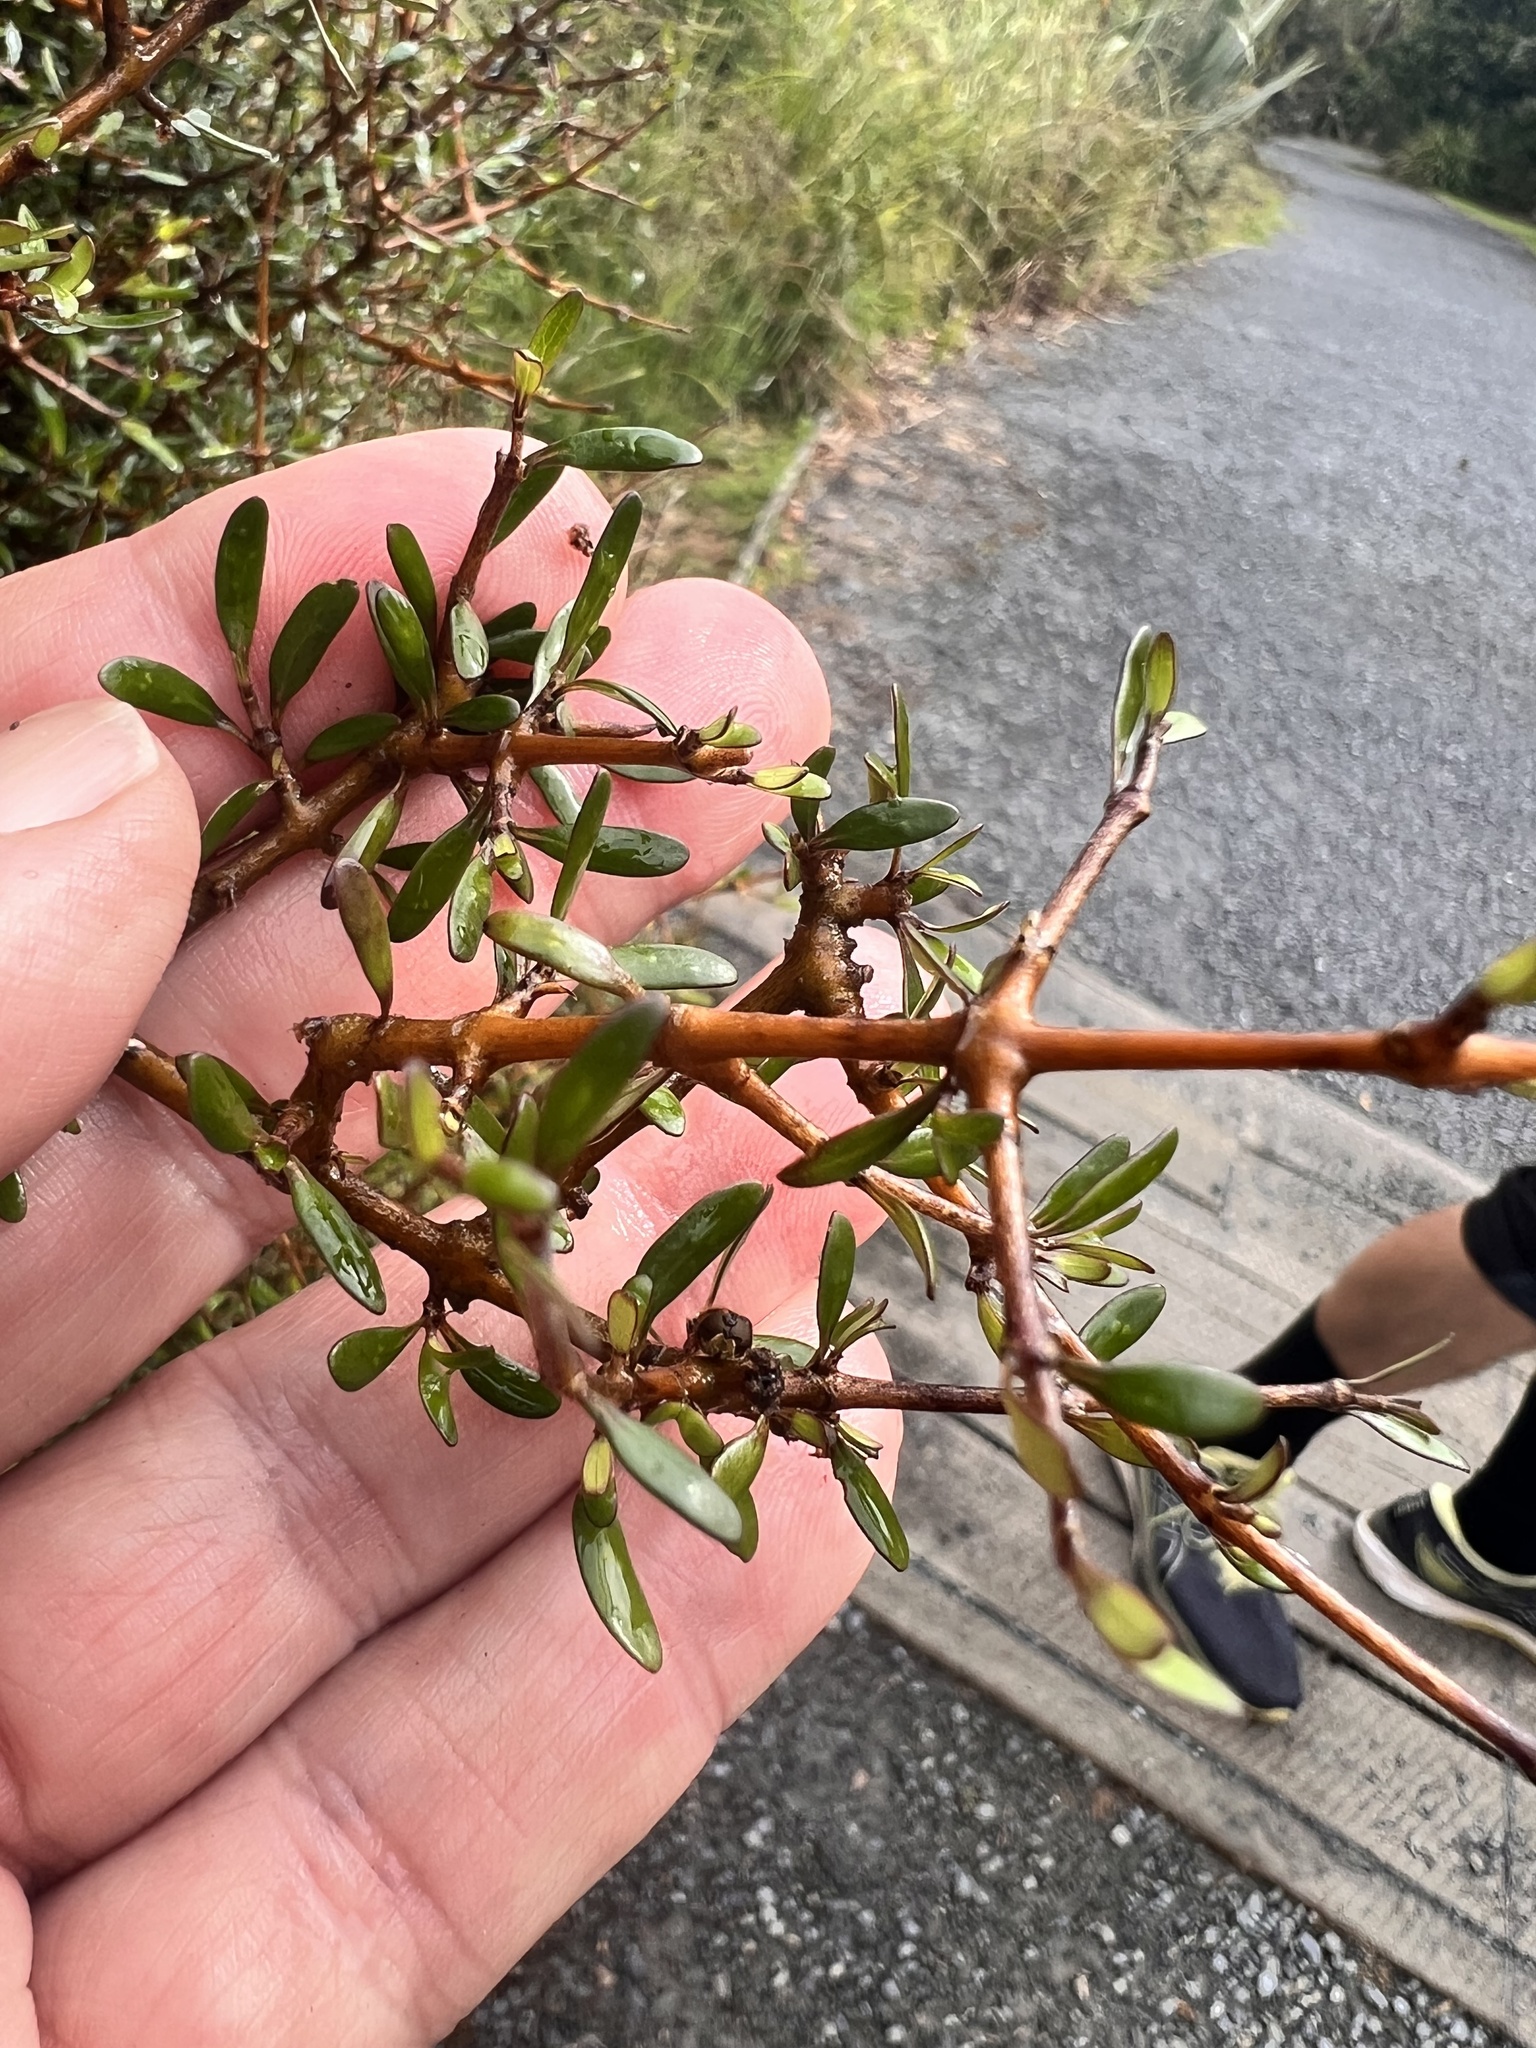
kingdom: Plantae
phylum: Tracheophyta
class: Magnoliopsida
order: Gentianales
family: Rubiaceae
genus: Coprosma
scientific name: Coprosma propinqua
